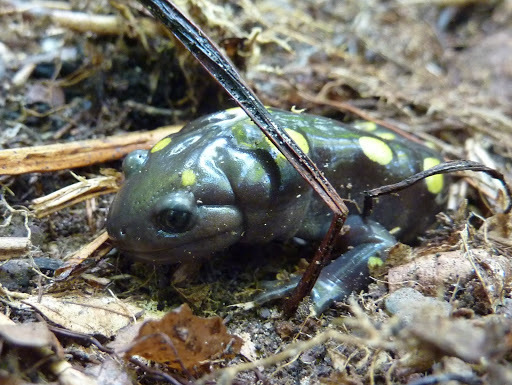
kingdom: Animalia
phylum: Chordata
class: Amphibia
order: Caudata
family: Ambystomatidae
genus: Ambystoma
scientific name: Ambystoma maculatum
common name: Spotted salamander
